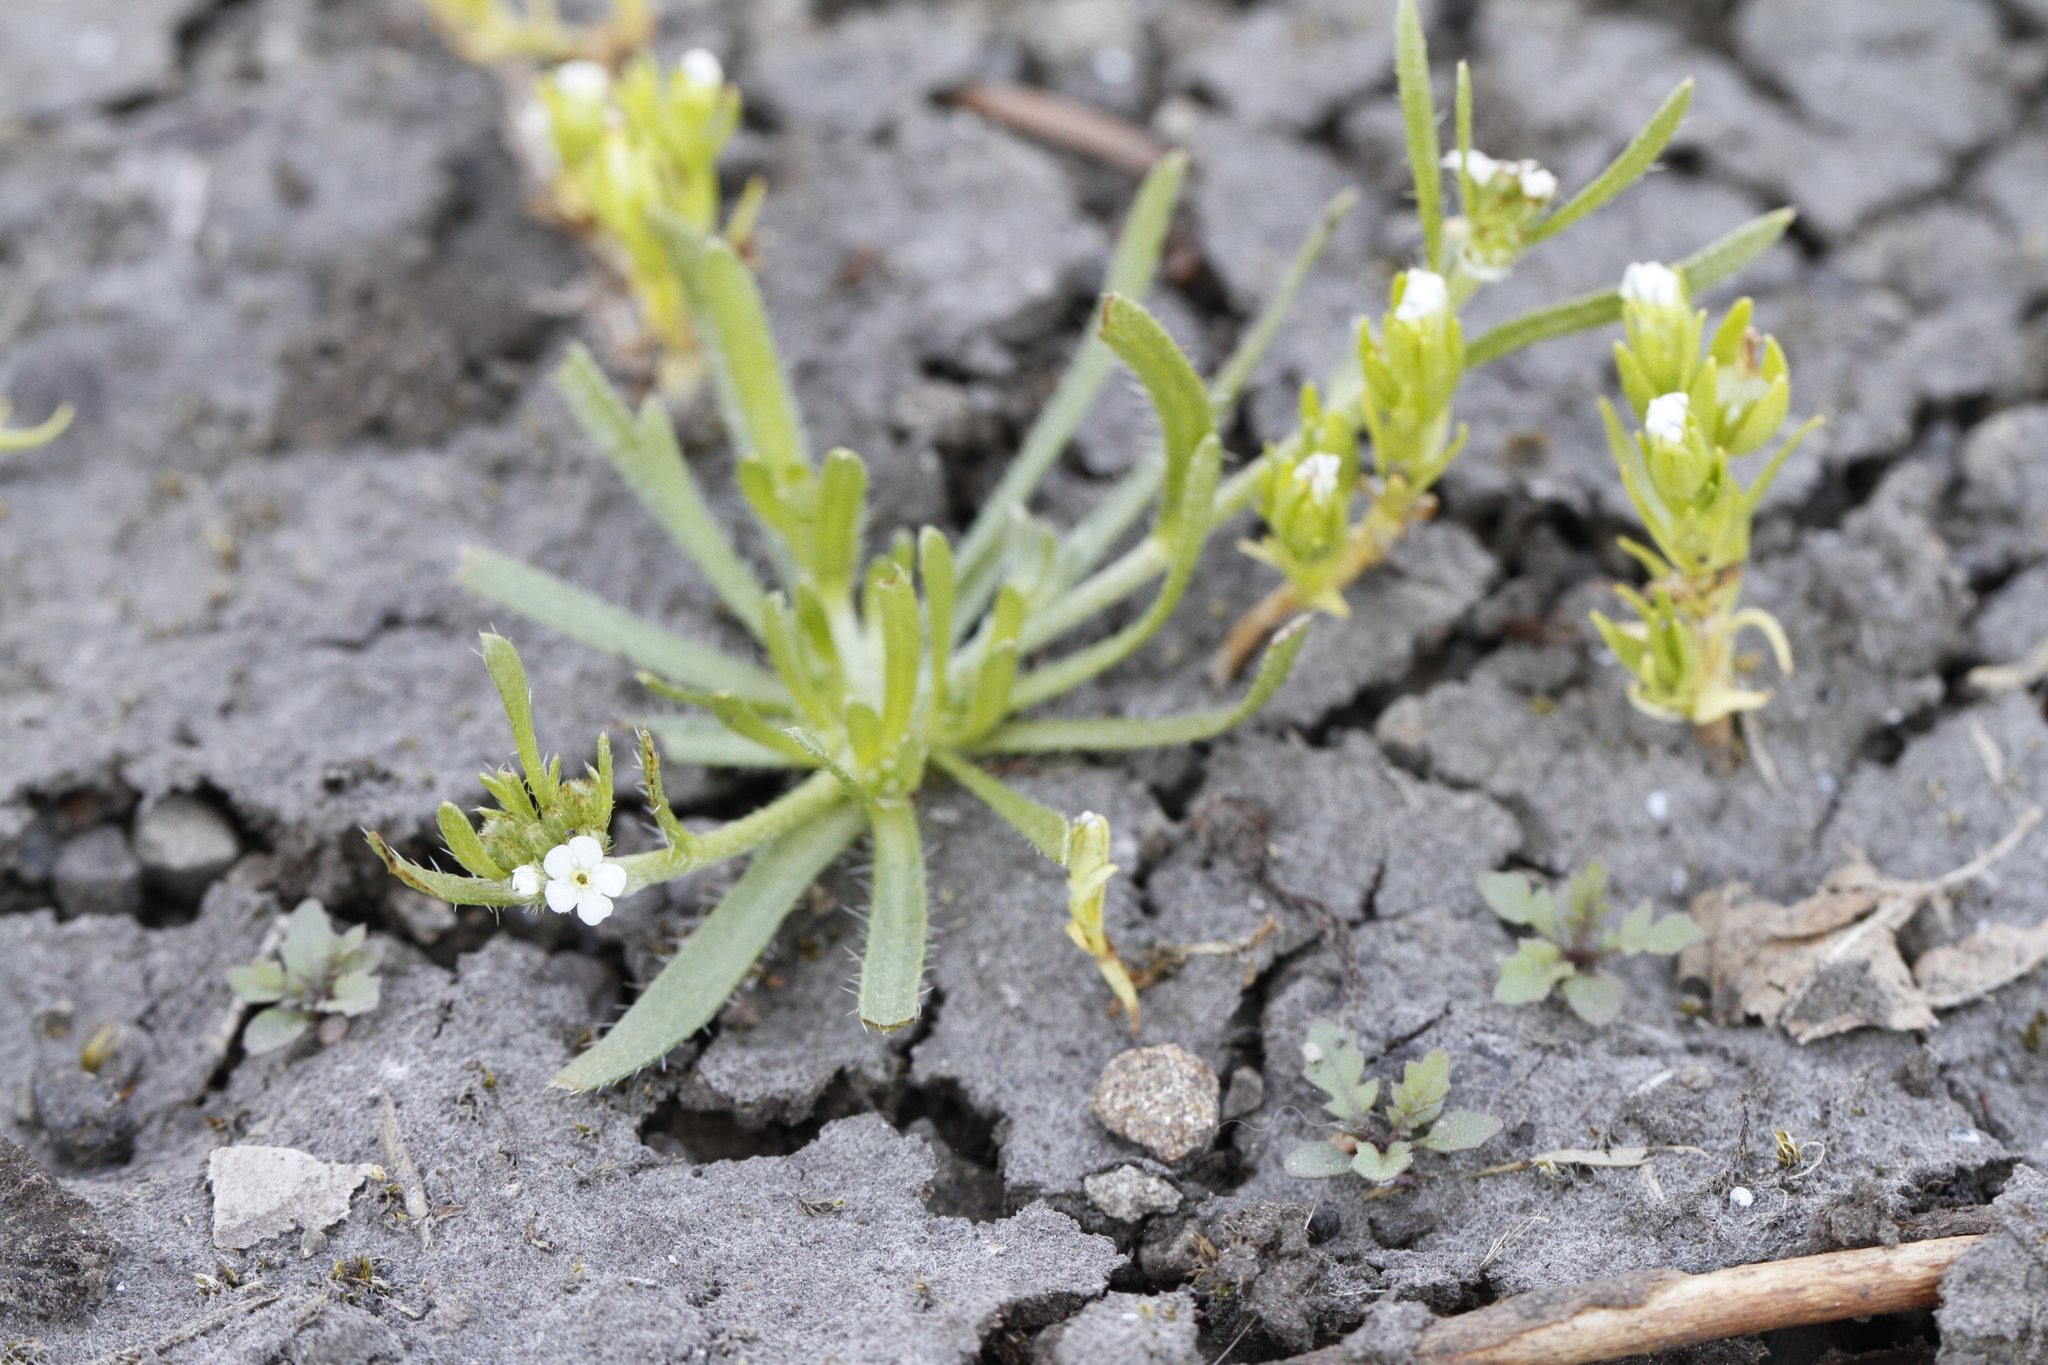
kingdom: Plantae
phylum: Tracheophyta
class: Magnoliopsida
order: Boraginales
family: Boraginaceae
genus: Plagiobothrys
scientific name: Plagiobothrys scouleri
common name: White forget-me-not
